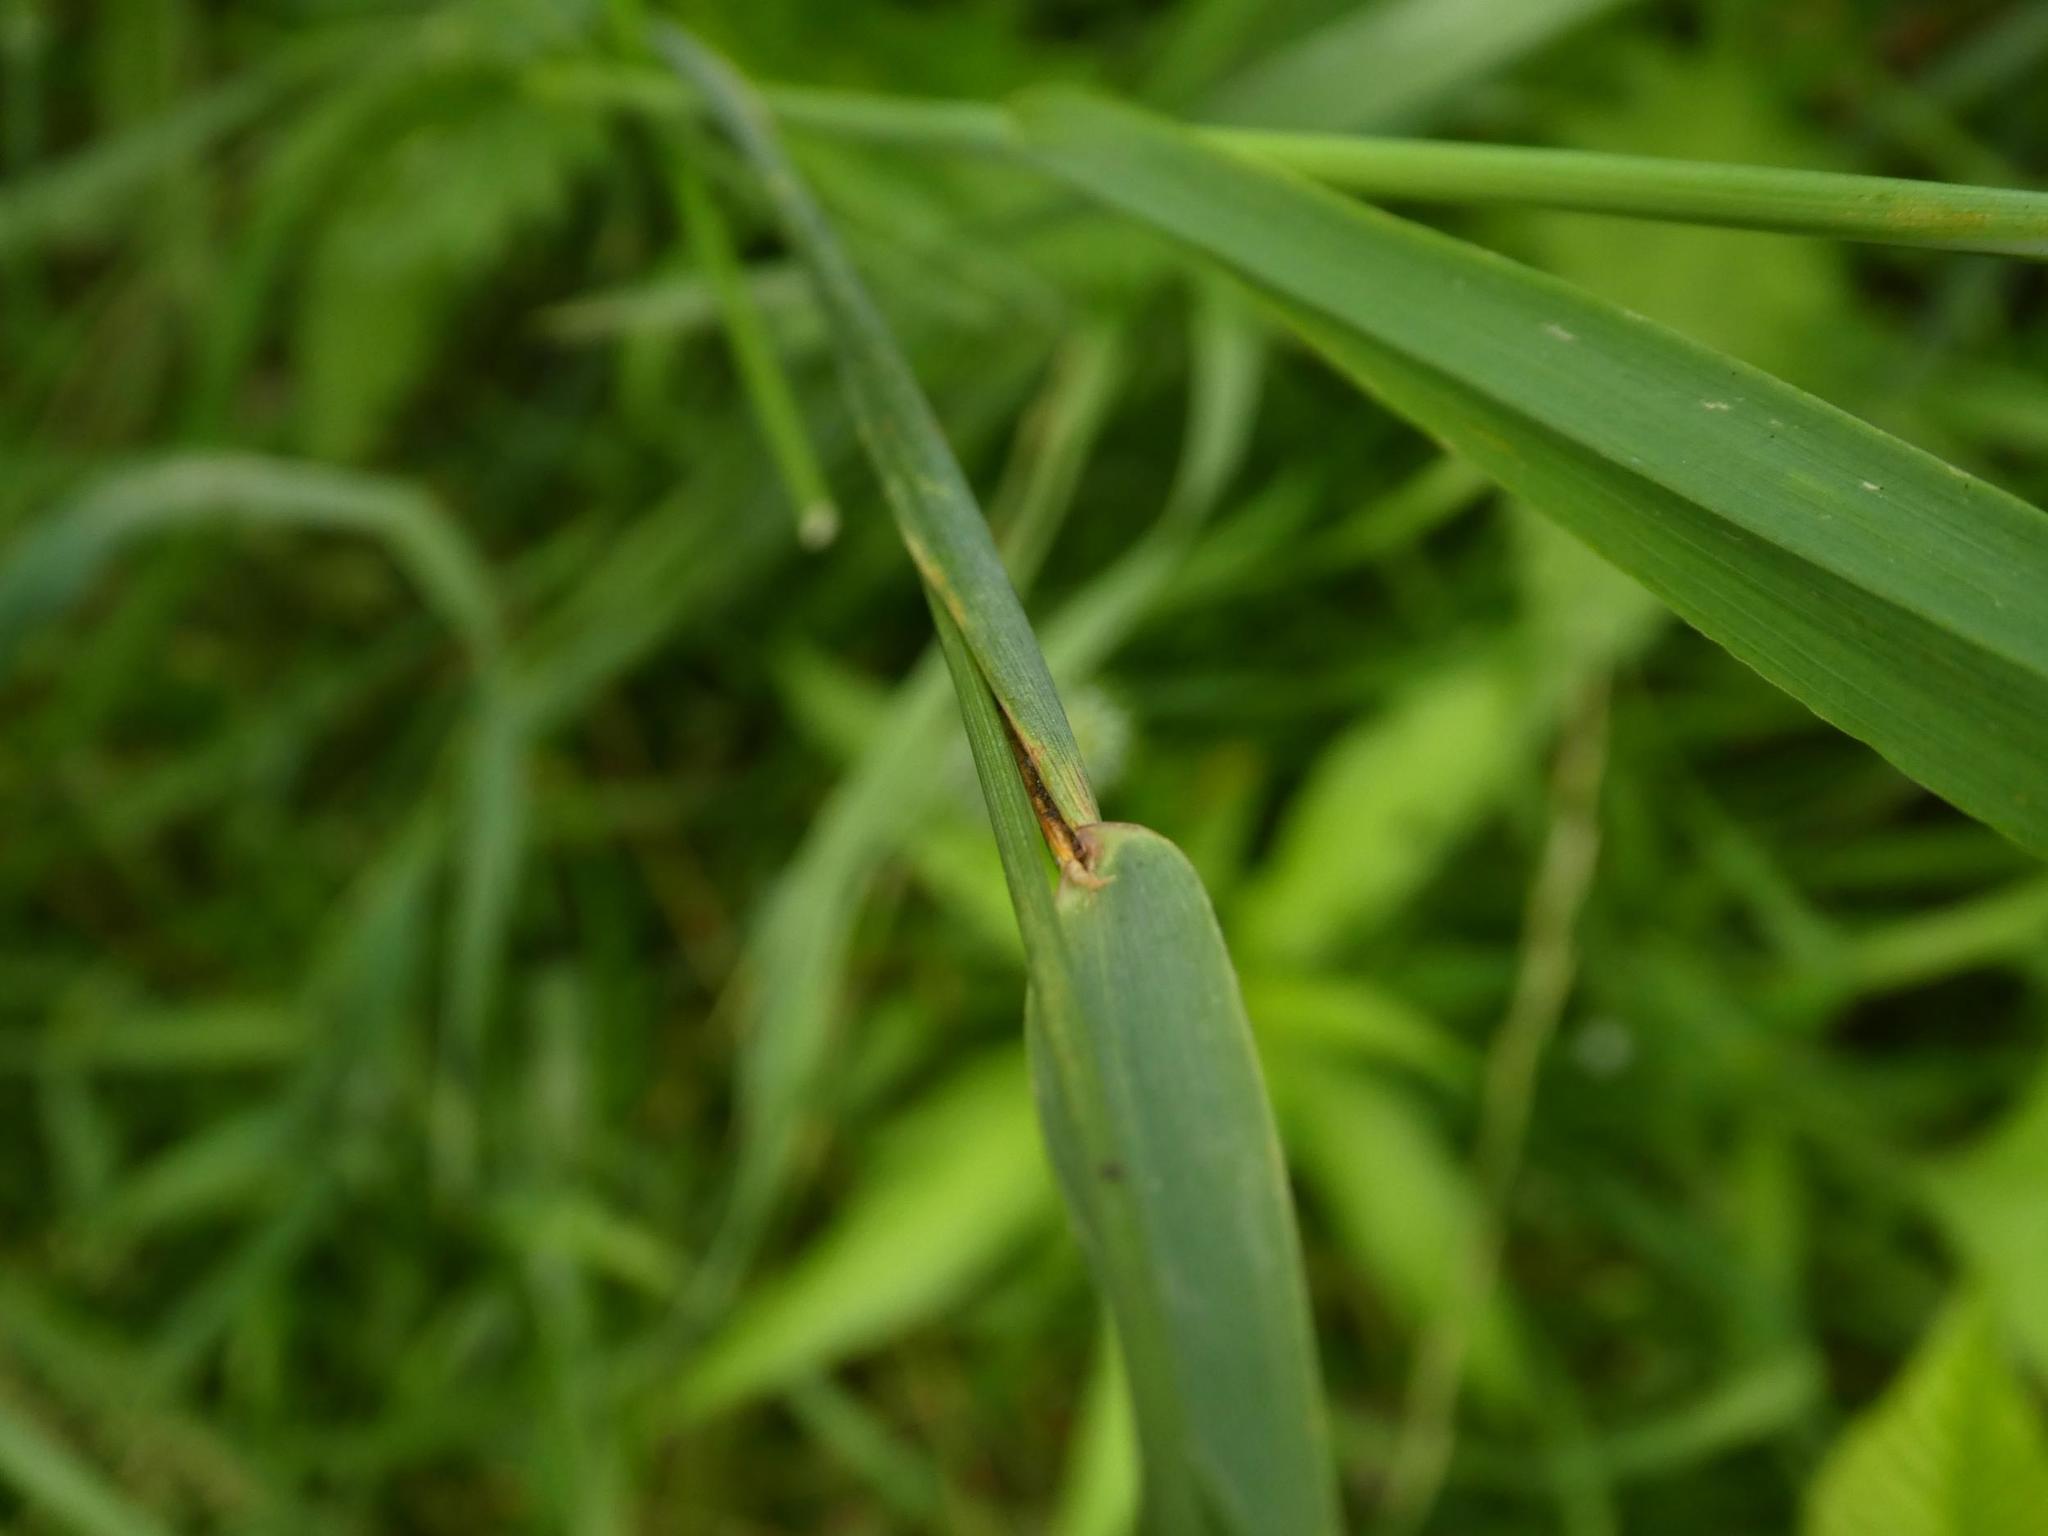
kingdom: Plantae
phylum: Tracheophyta
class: Liliopsida
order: Poales
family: Poaceae
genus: Phleum
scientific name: Phleum pratense
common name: Timothy grass
